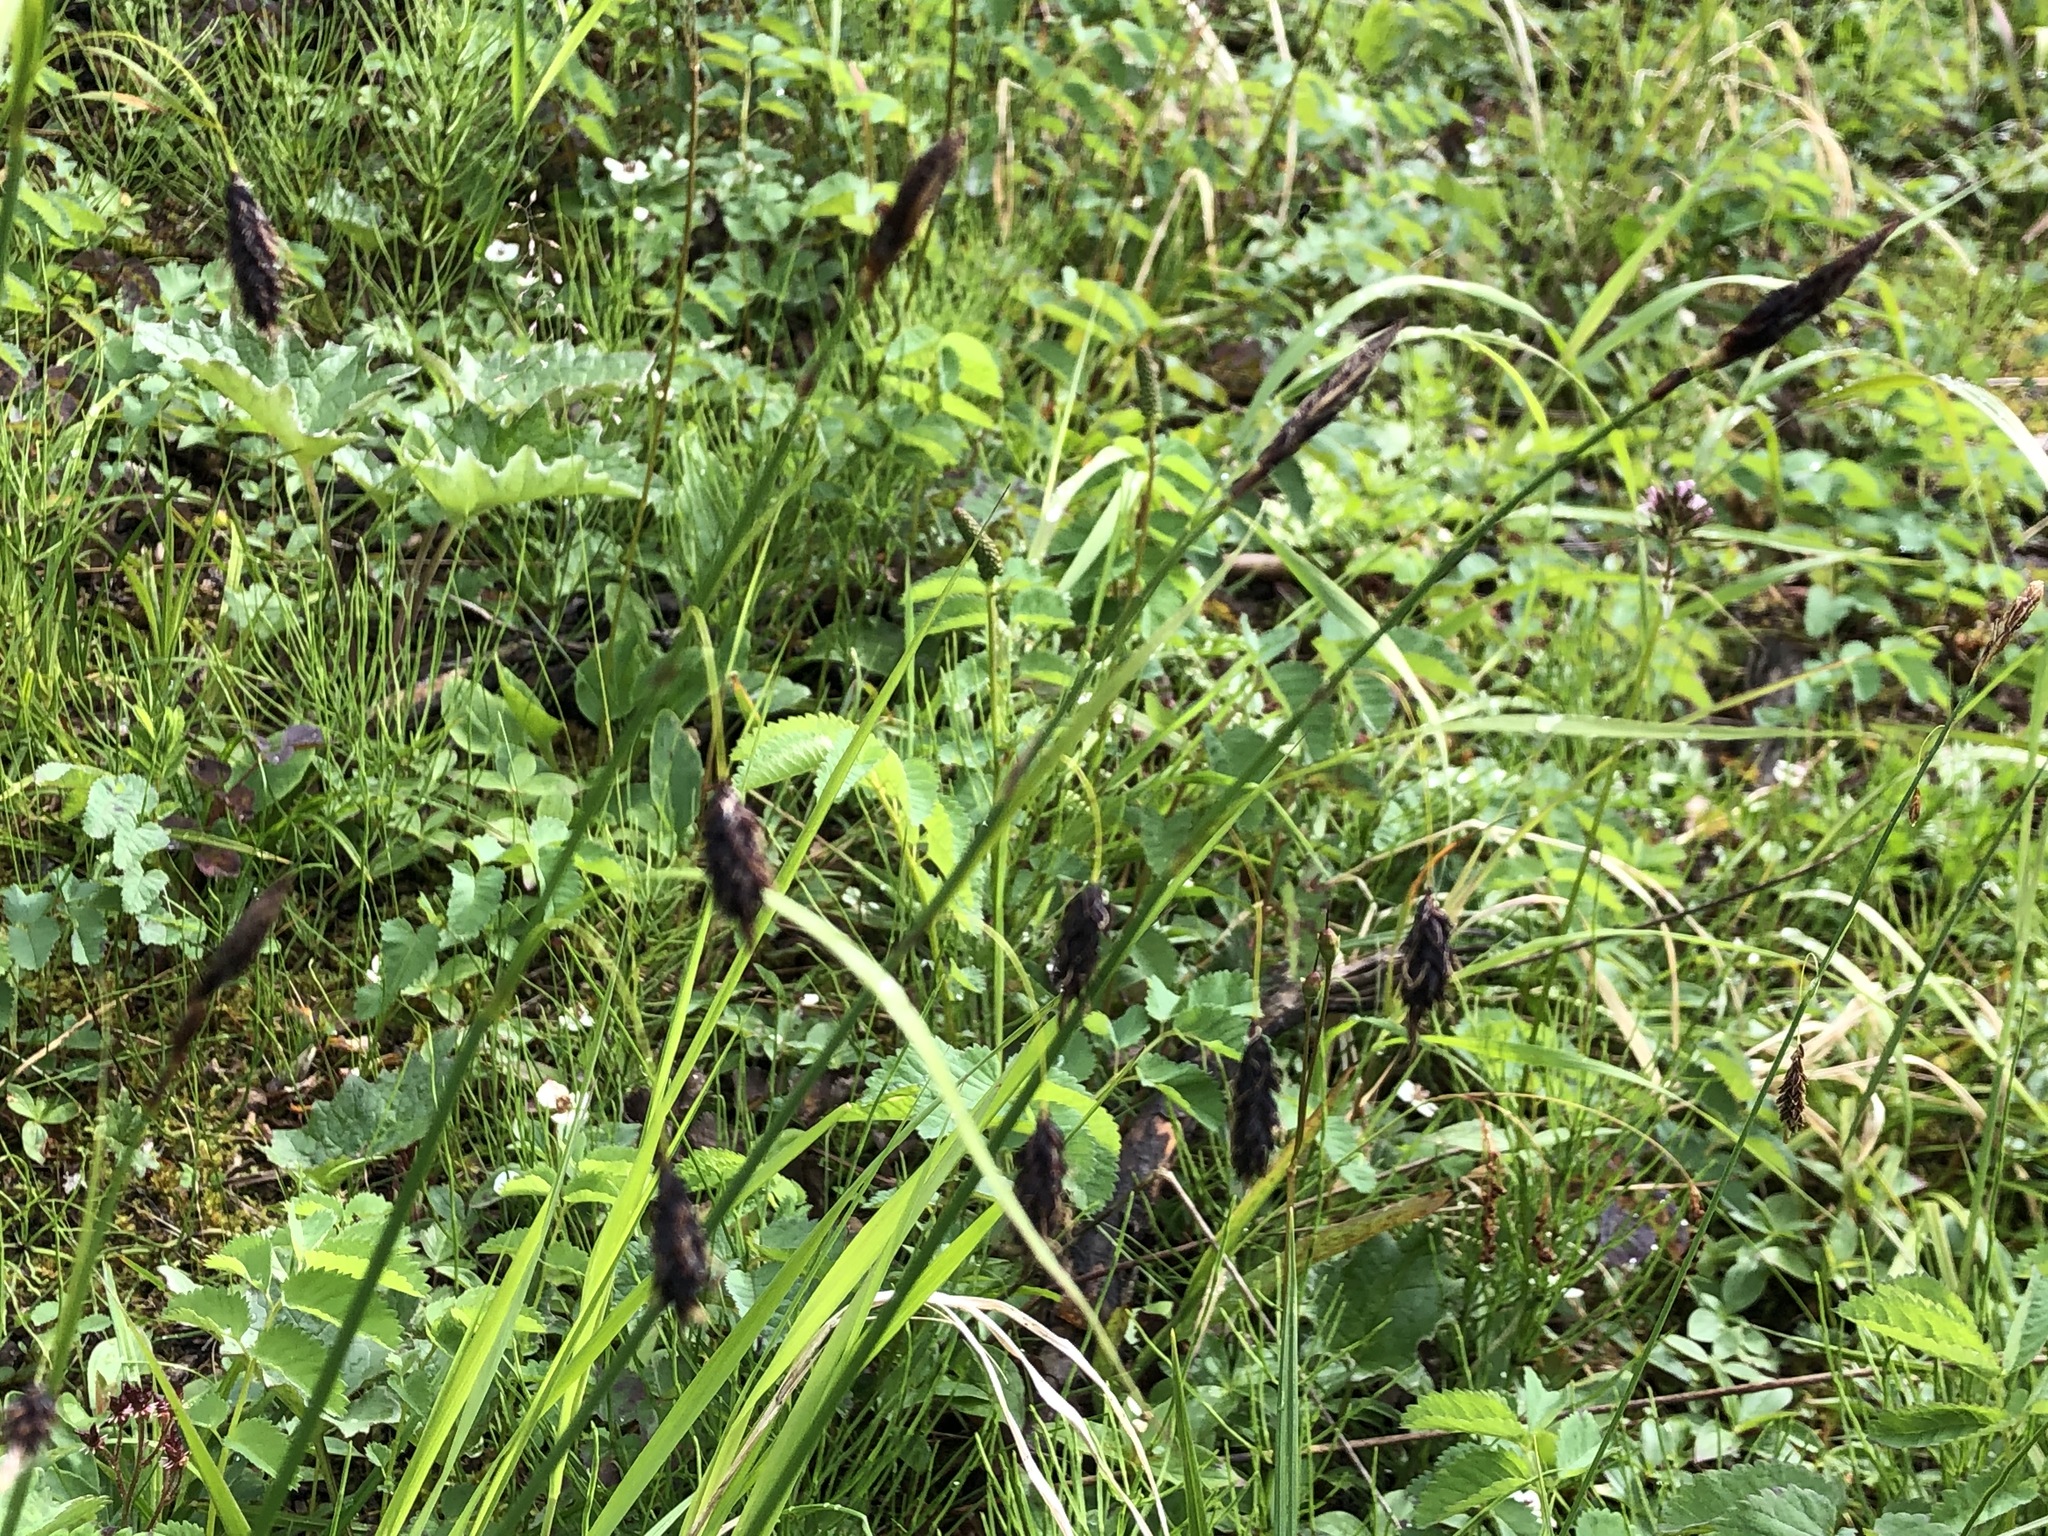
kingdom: Plantae
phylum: Tracheophyta
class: Liliopsida
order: Poales
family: Cyperaceae
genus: Carex
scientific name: Carex pluriflora
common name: Manyflower sedge
